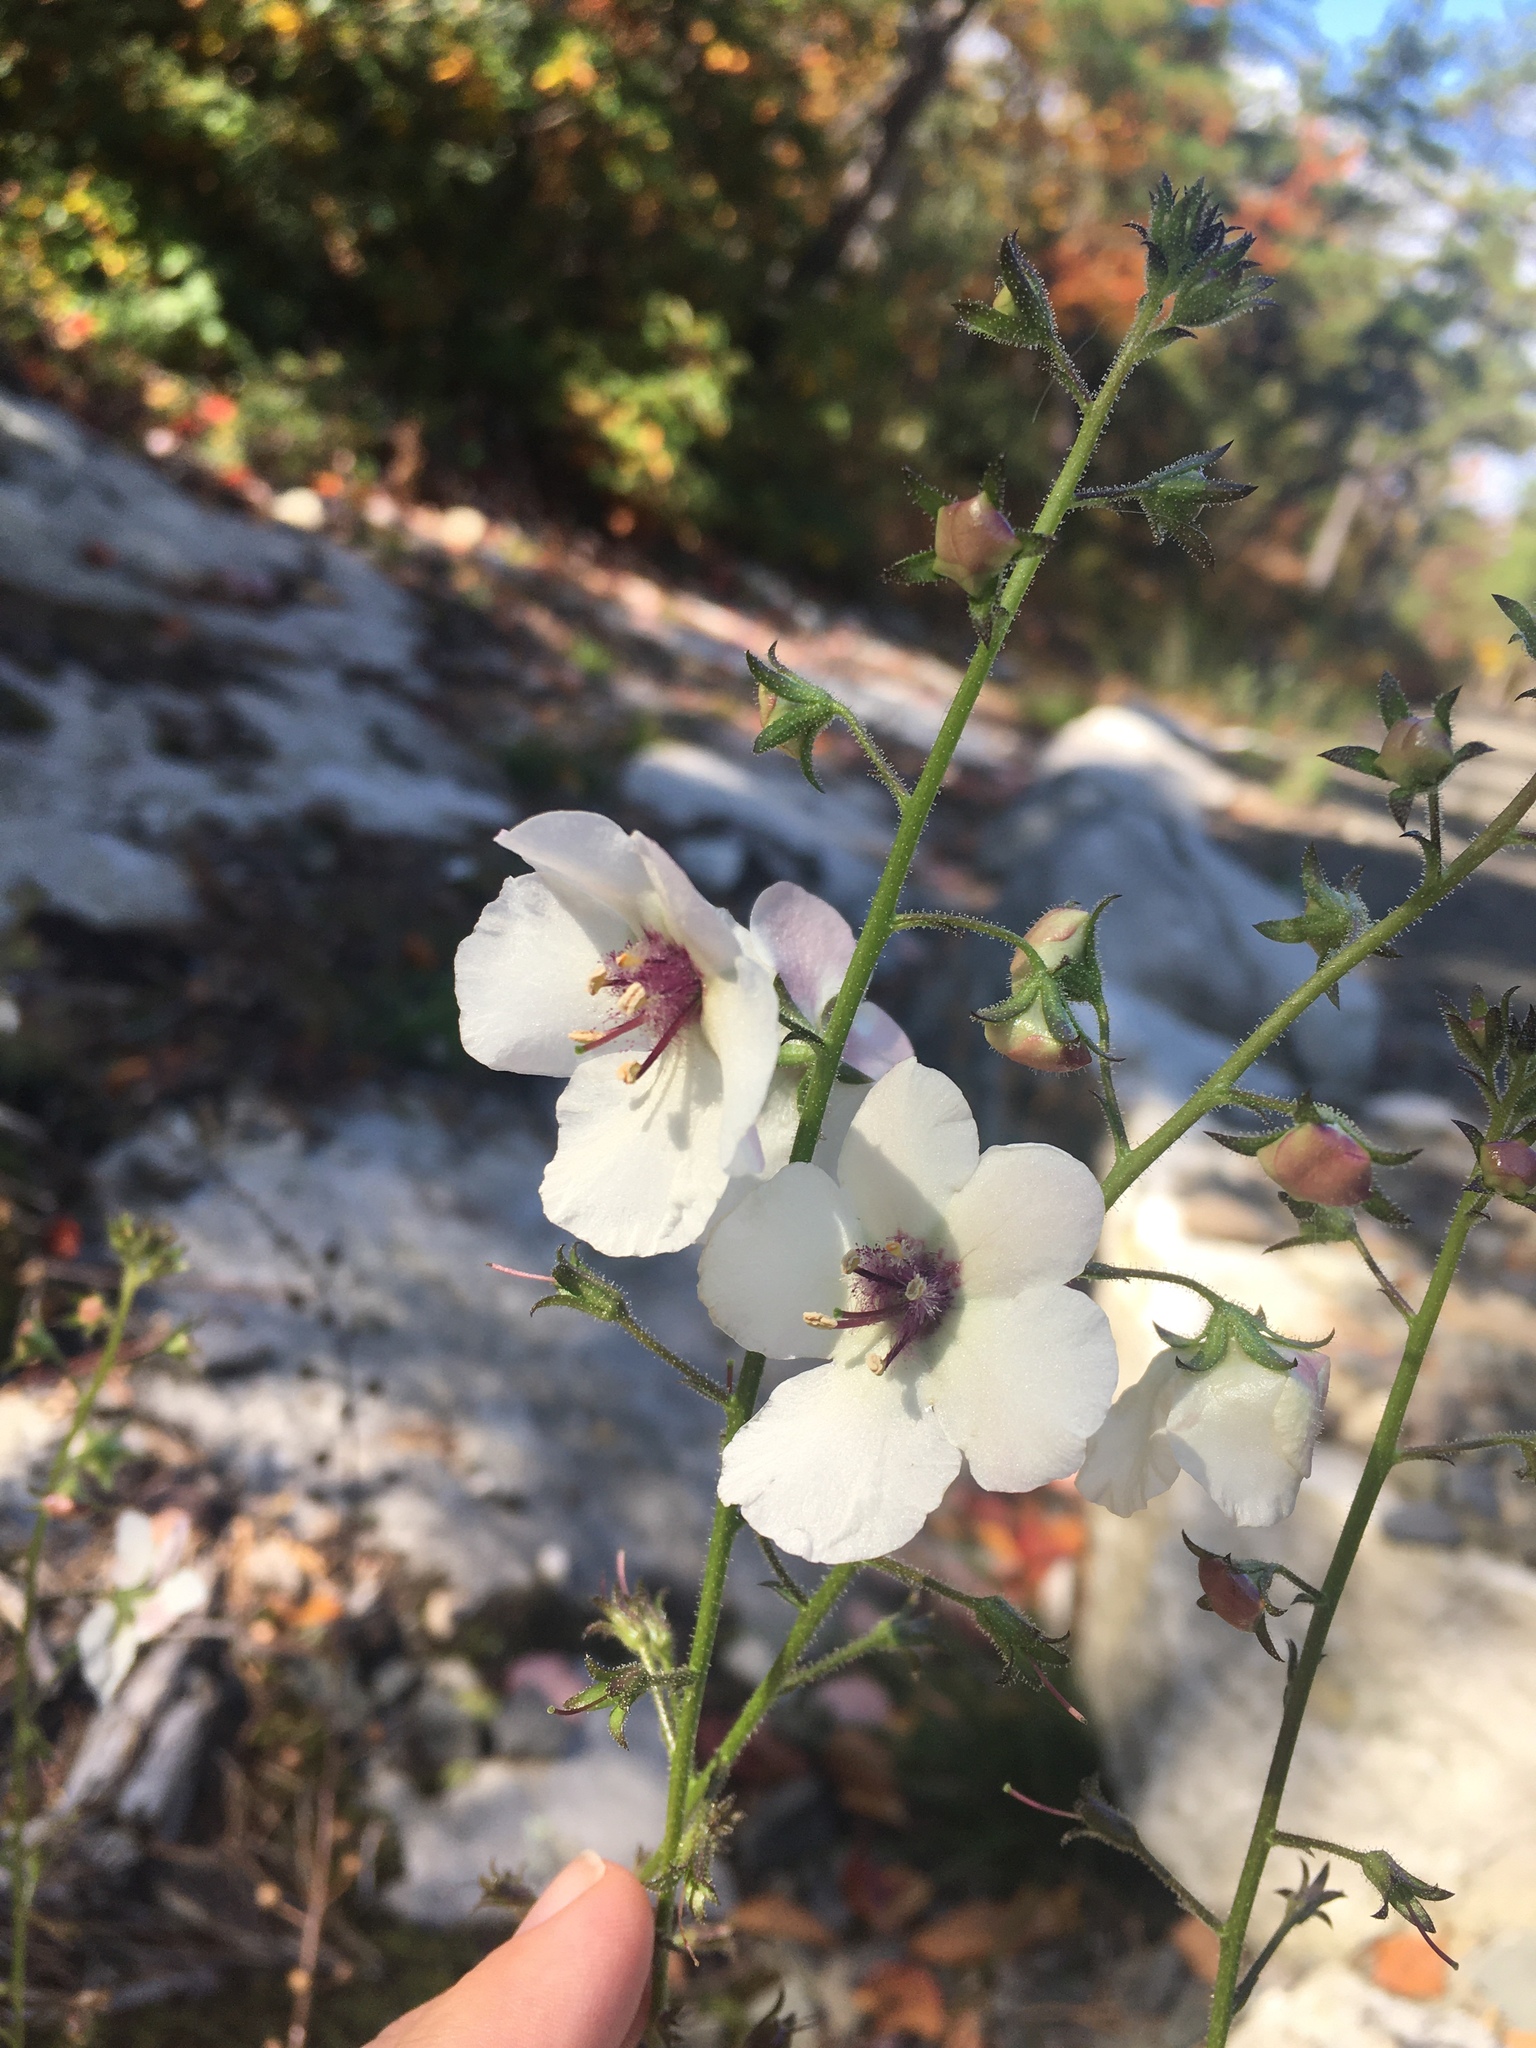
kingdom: Plantae
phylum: Tracheophyta
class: Magnoliopsida
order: Lamiales
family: Scrophulariaceae
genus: Verbascum
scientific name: Verbascum blattaria
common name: Moth mullein
